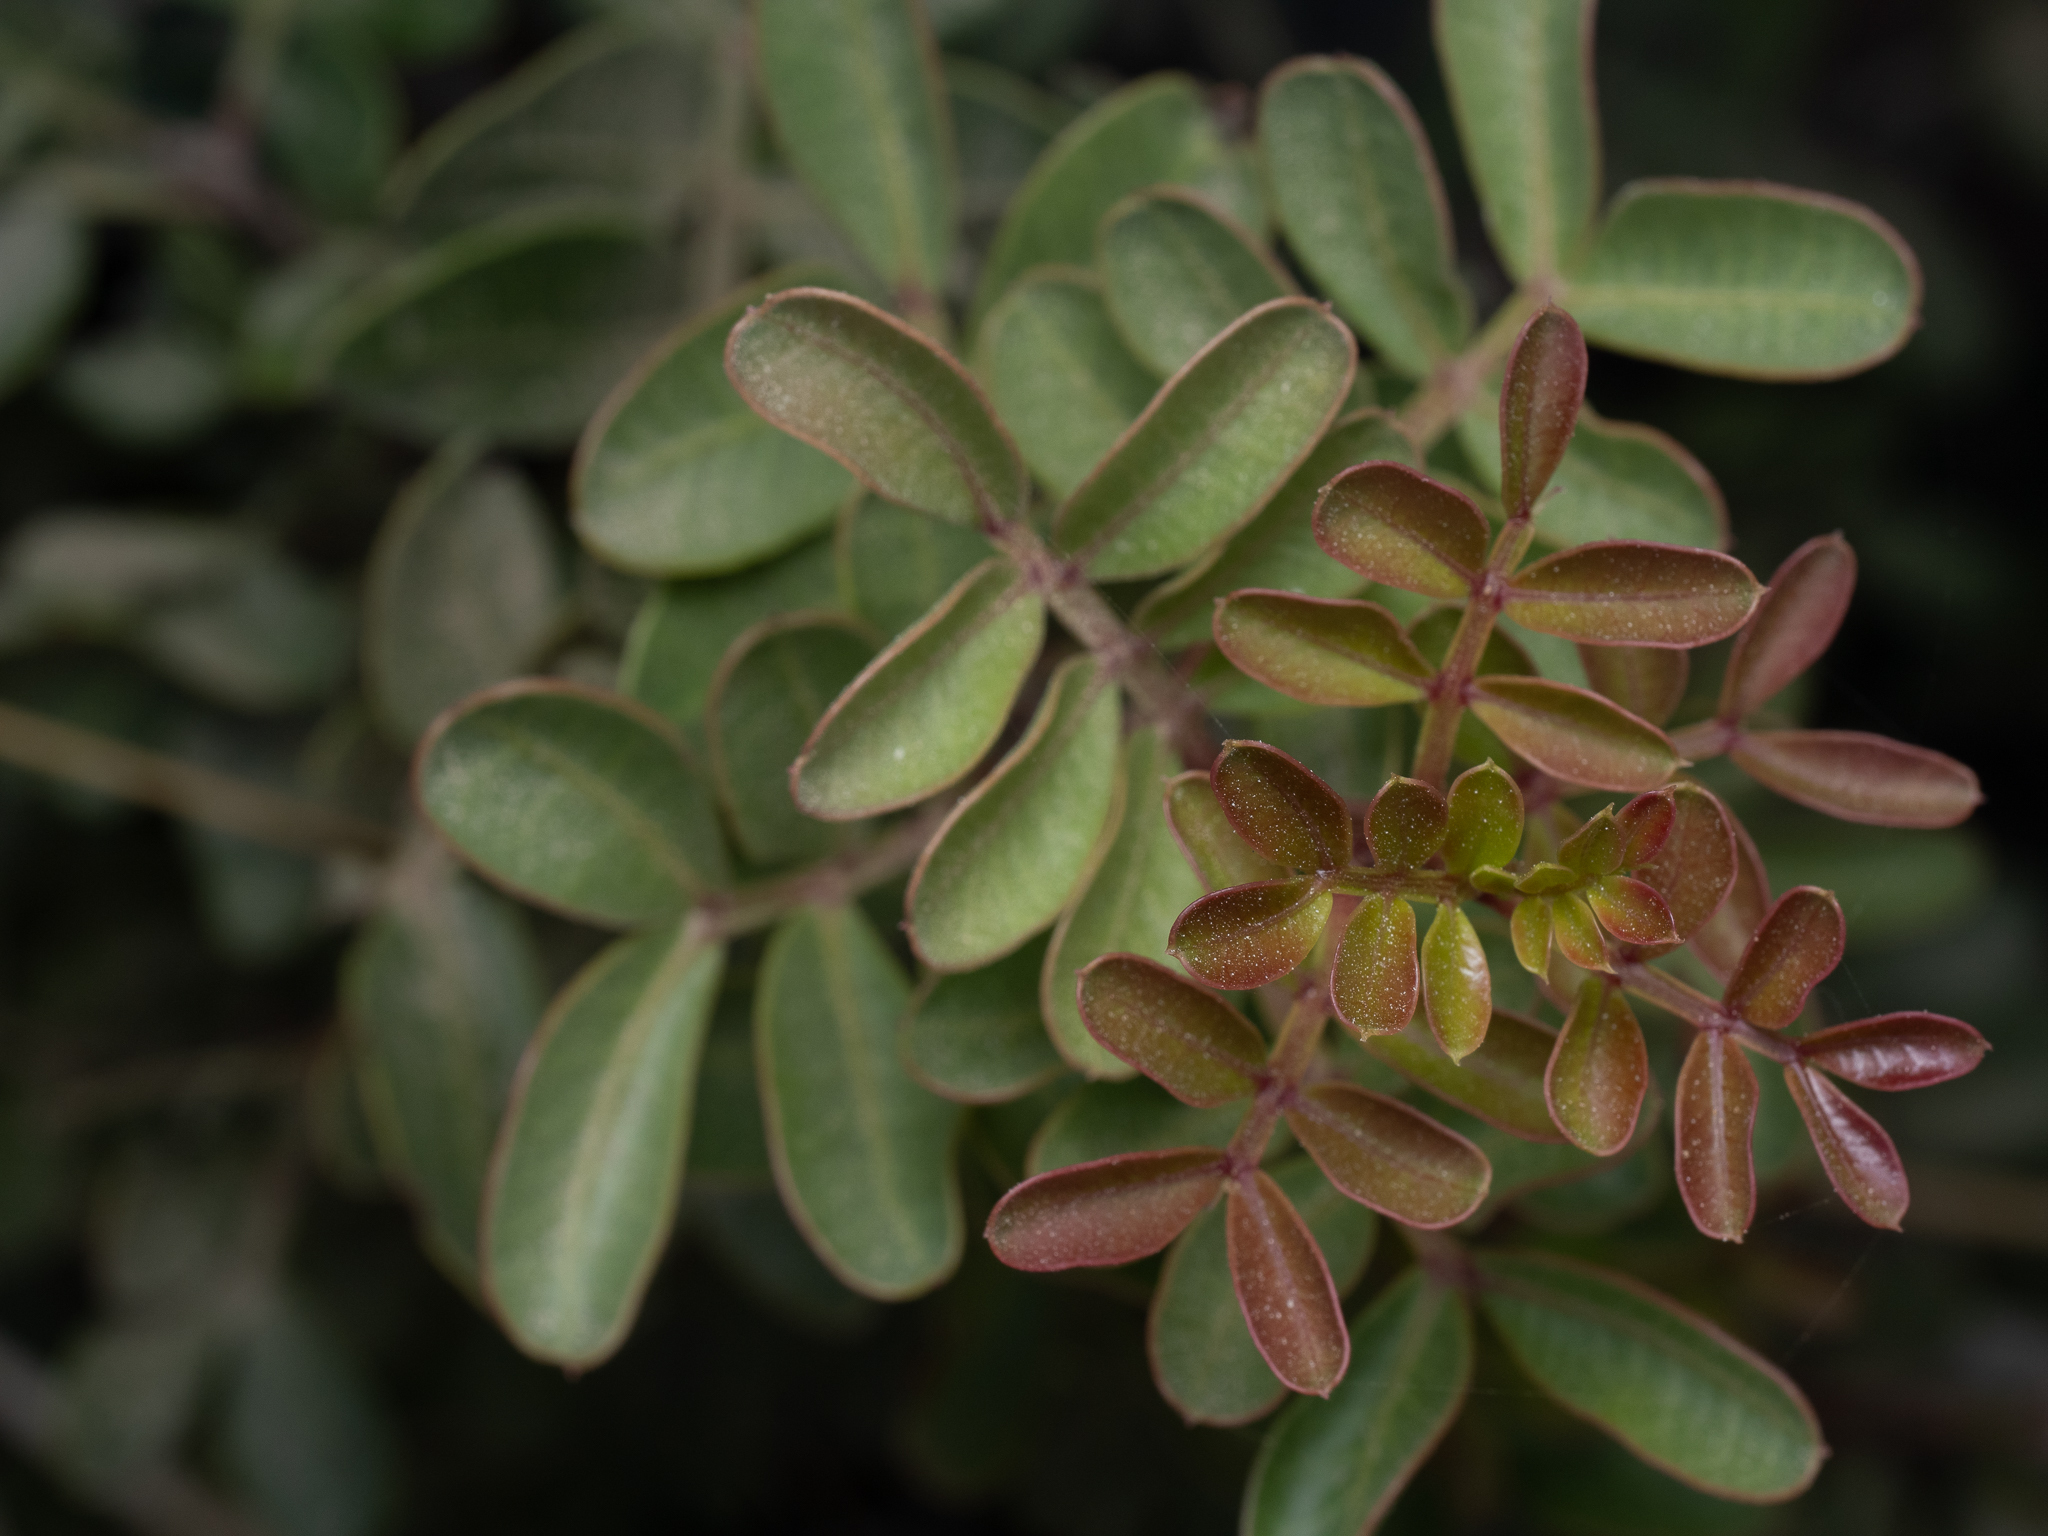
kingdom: Plantae
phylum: Tracheophyta
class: Magnoliopsida
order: Sapindales
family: Anacardiaceae
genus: Pistacia
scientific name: Pistacia lentiscus
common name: Lentisk
